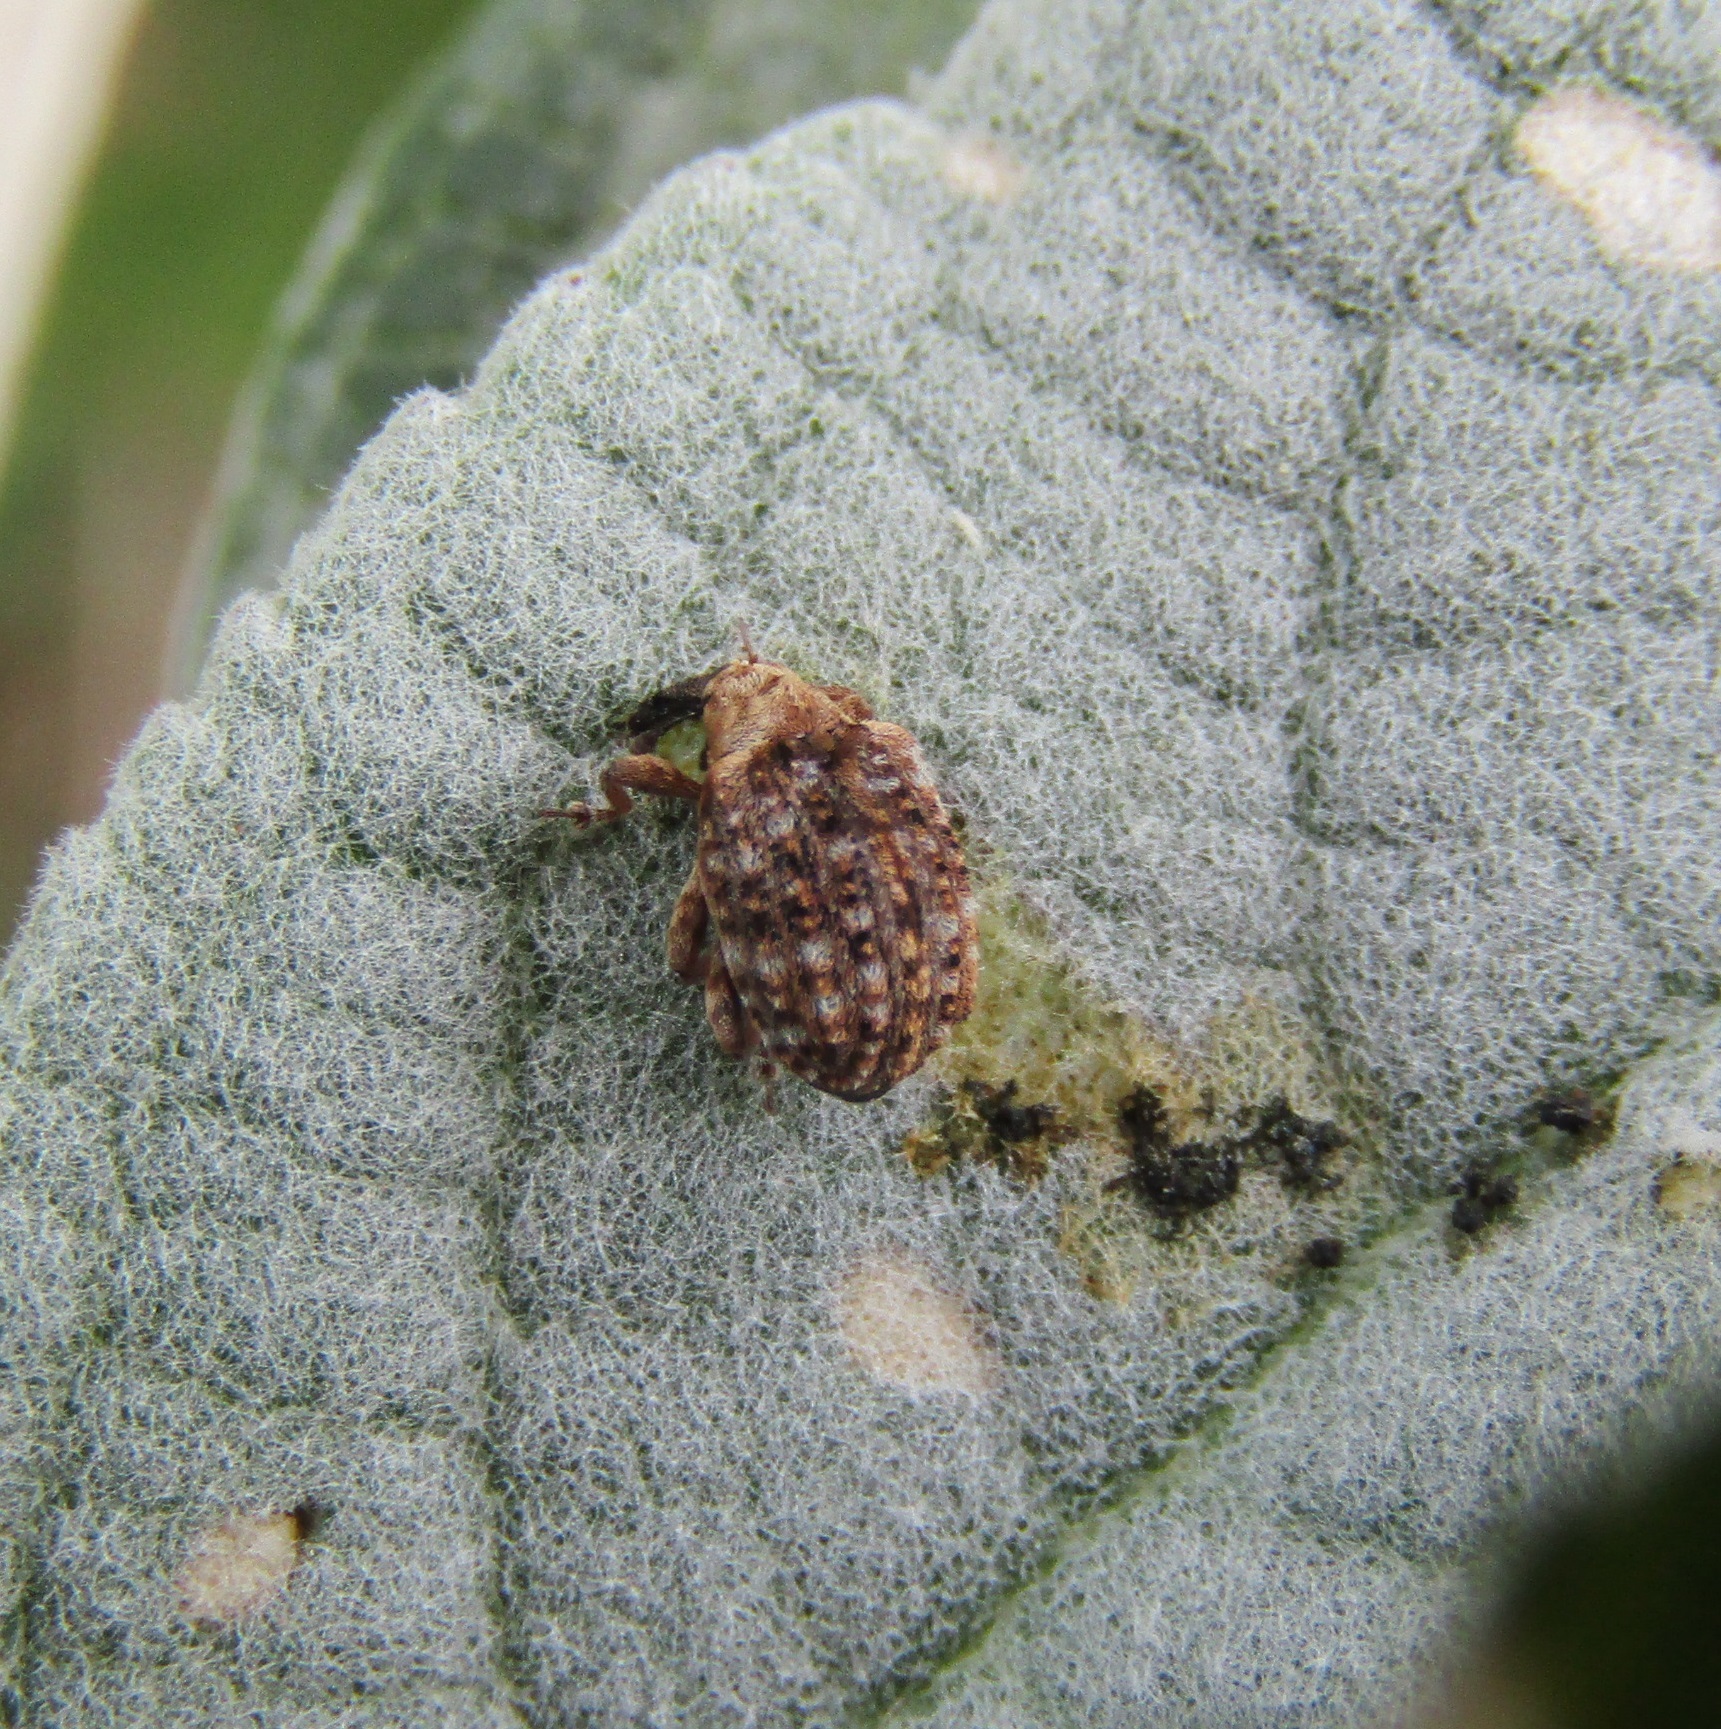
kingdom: Animalia
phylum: Arthropoda
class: Insecta
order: Coleoptera
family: Curculionidae
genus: Cleopus
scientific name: Cleopus japonicus
